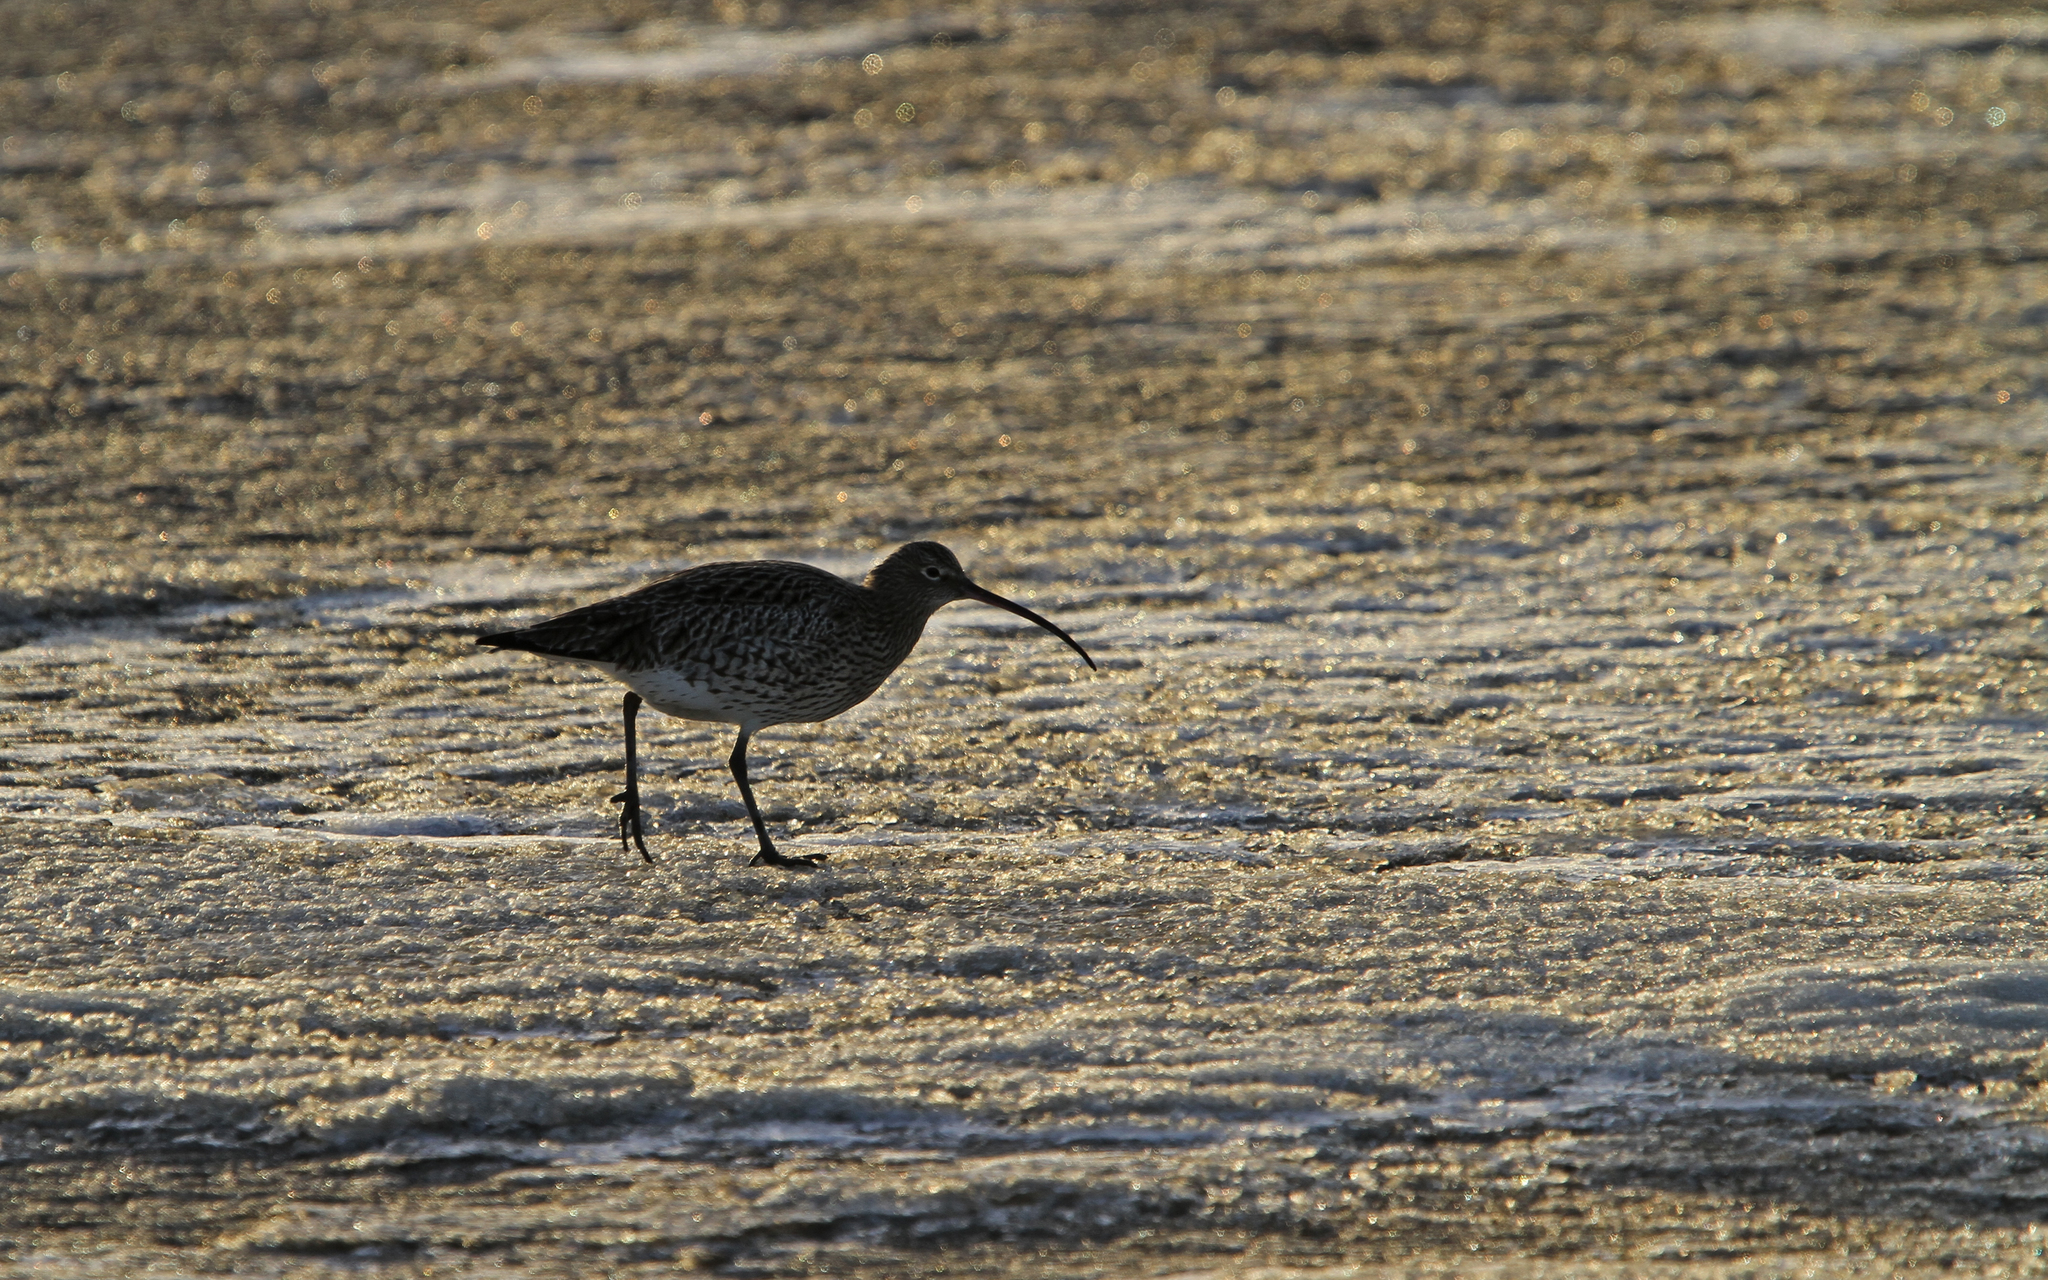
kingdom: Animalia
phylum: Chordata
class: Aves
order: Charadriiformes
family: Scolopacidae
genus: Numenius
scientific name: Numenius arquata
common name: Eurasian curlew
